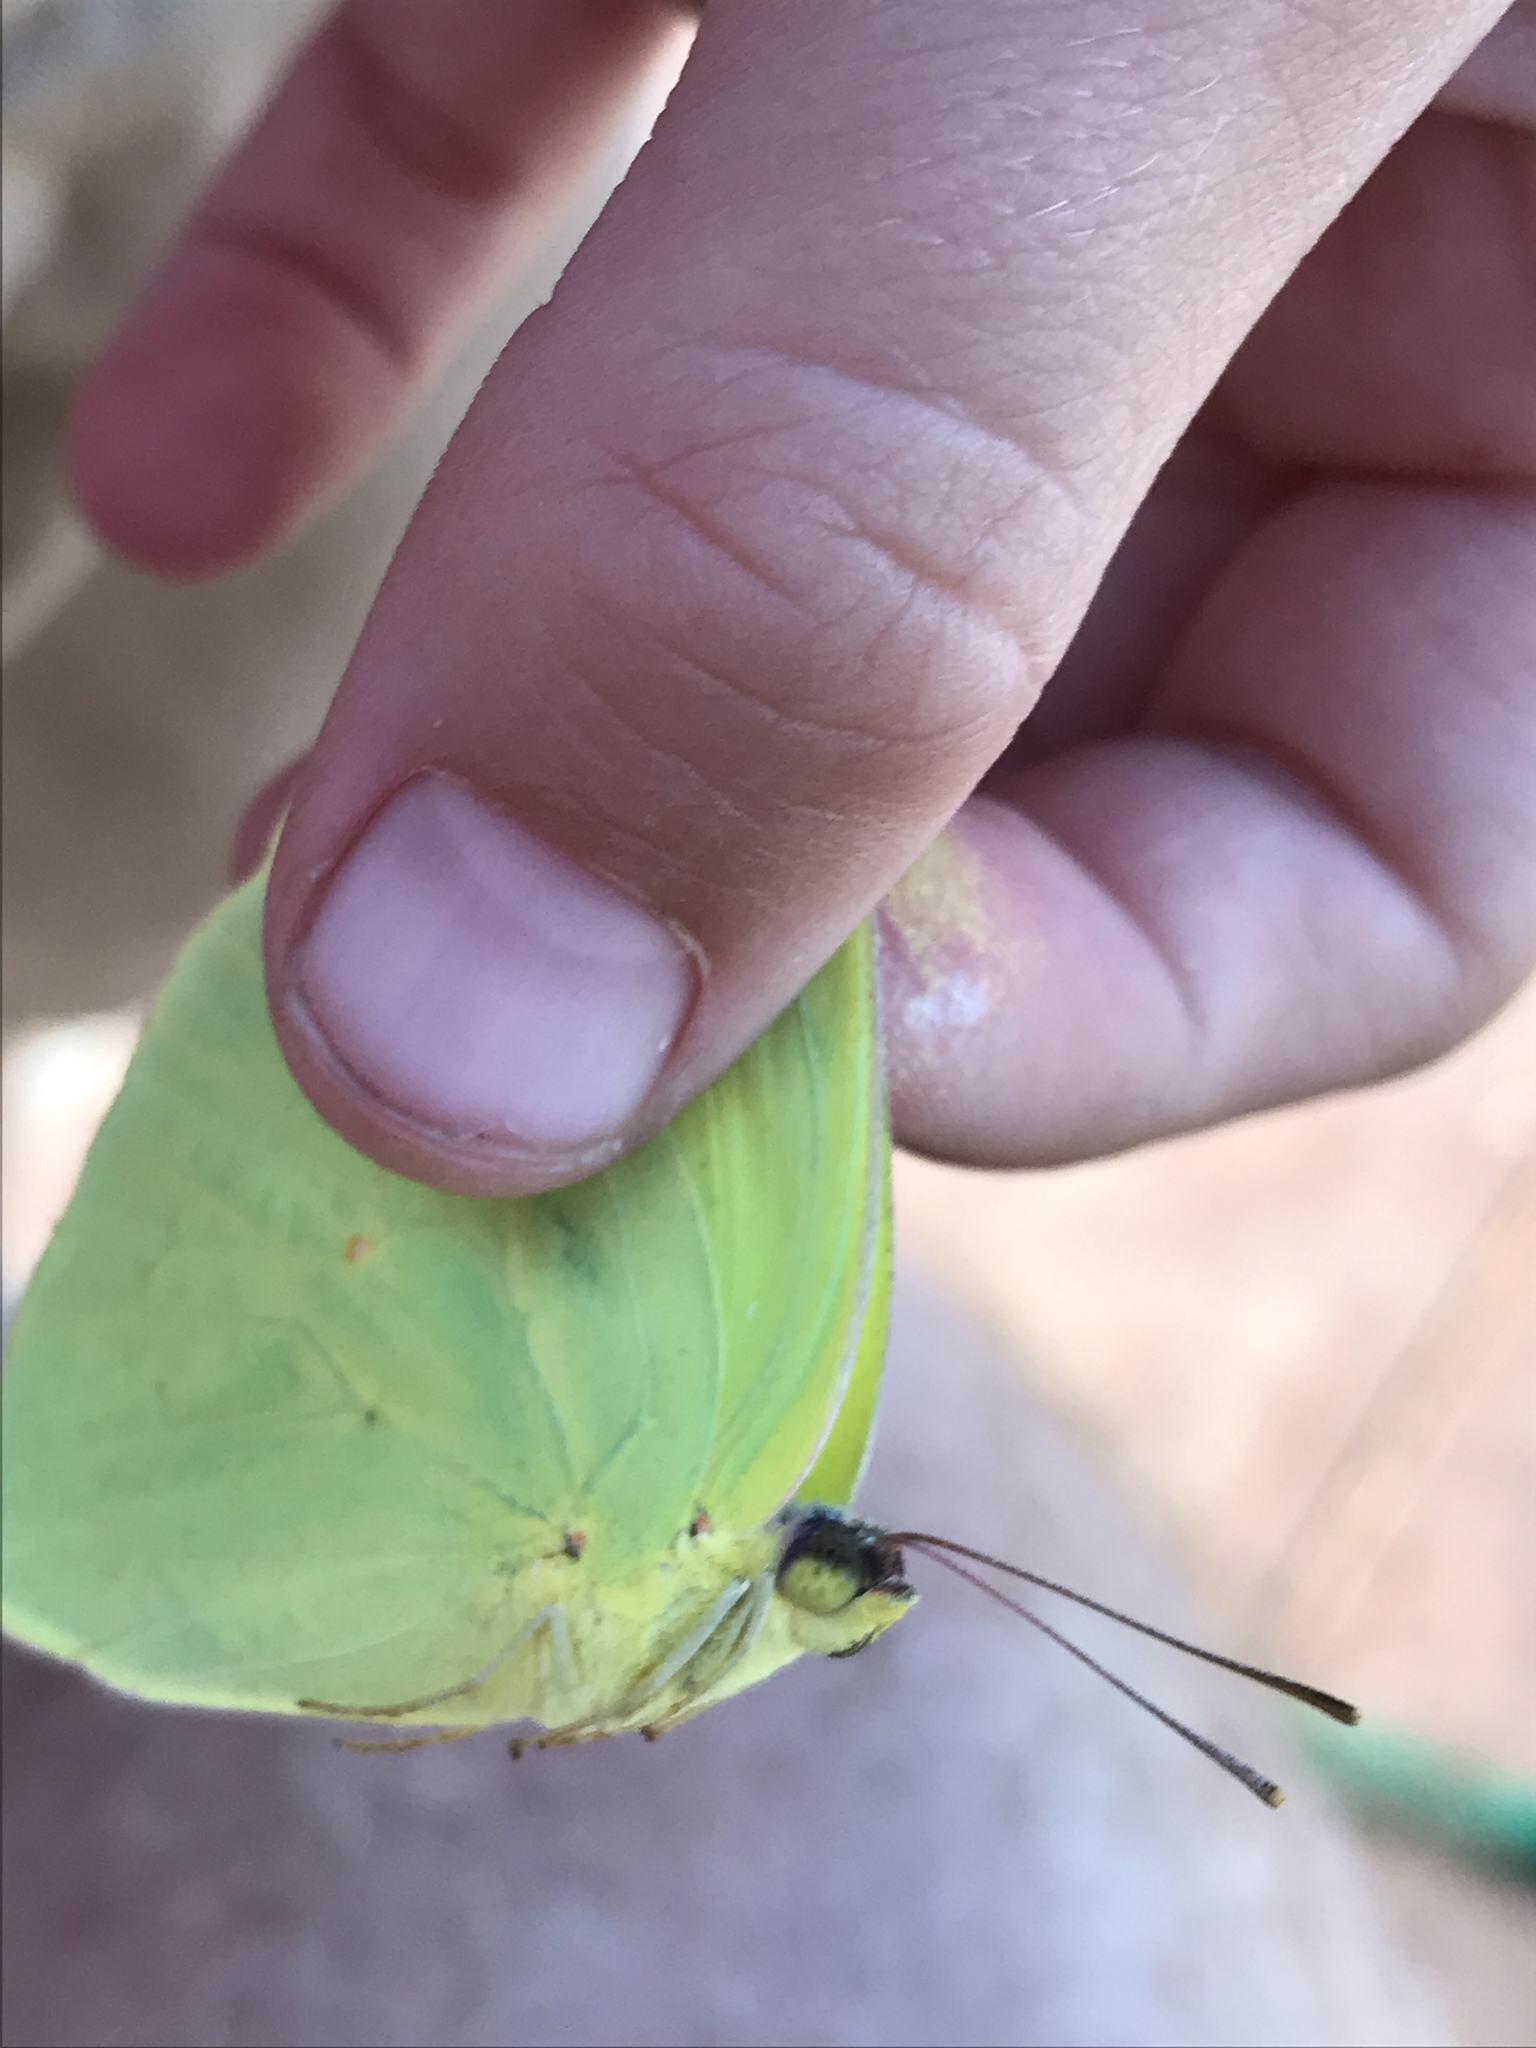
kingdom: Animalia
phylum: Arthropoda
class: Insecta
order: Lepidoptera
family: Pieridae
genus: Phoebis
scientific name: Phoebis sennae
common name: Cloudless sulphur
